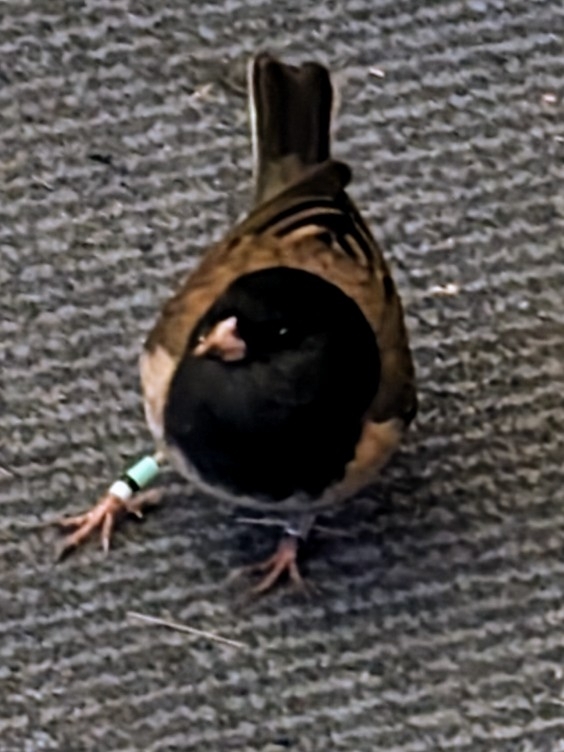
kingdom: Animalia
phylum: Chordata
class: Aves
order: Passeriformes
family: Passerellidae
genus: Junco
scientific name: Junco hyemalis
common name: Dark-eyed junco
